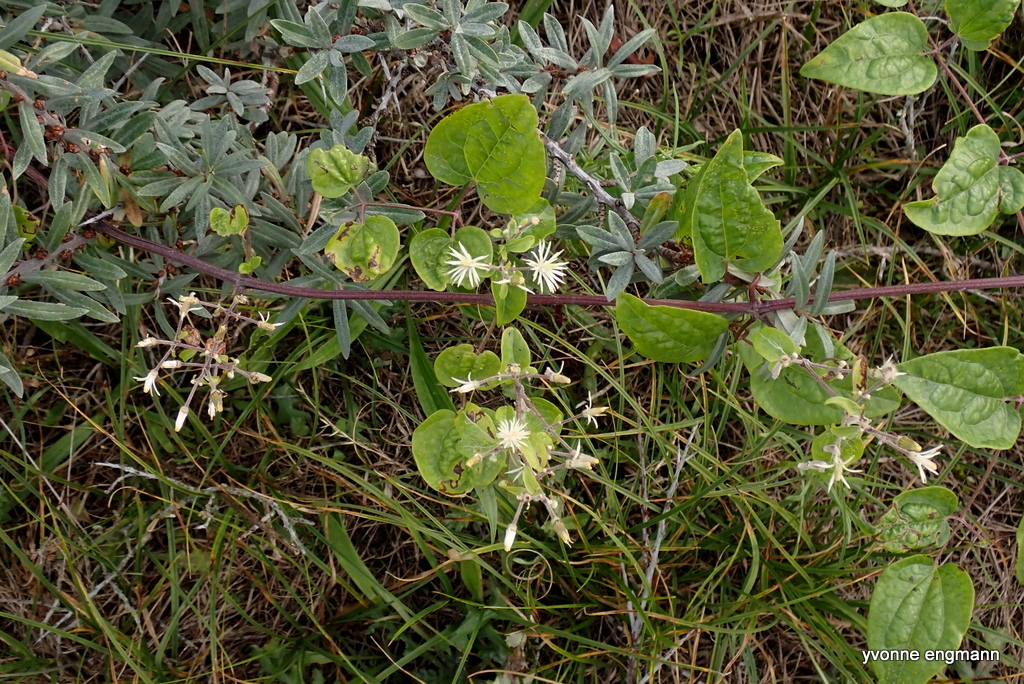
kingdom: Plantae
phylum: Tracheophyta
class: Magnoliopsida
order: Ranunculales
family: Ranunculaceae
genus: Clematis
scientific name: Clematis vitalba
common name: Evergreen clematis
